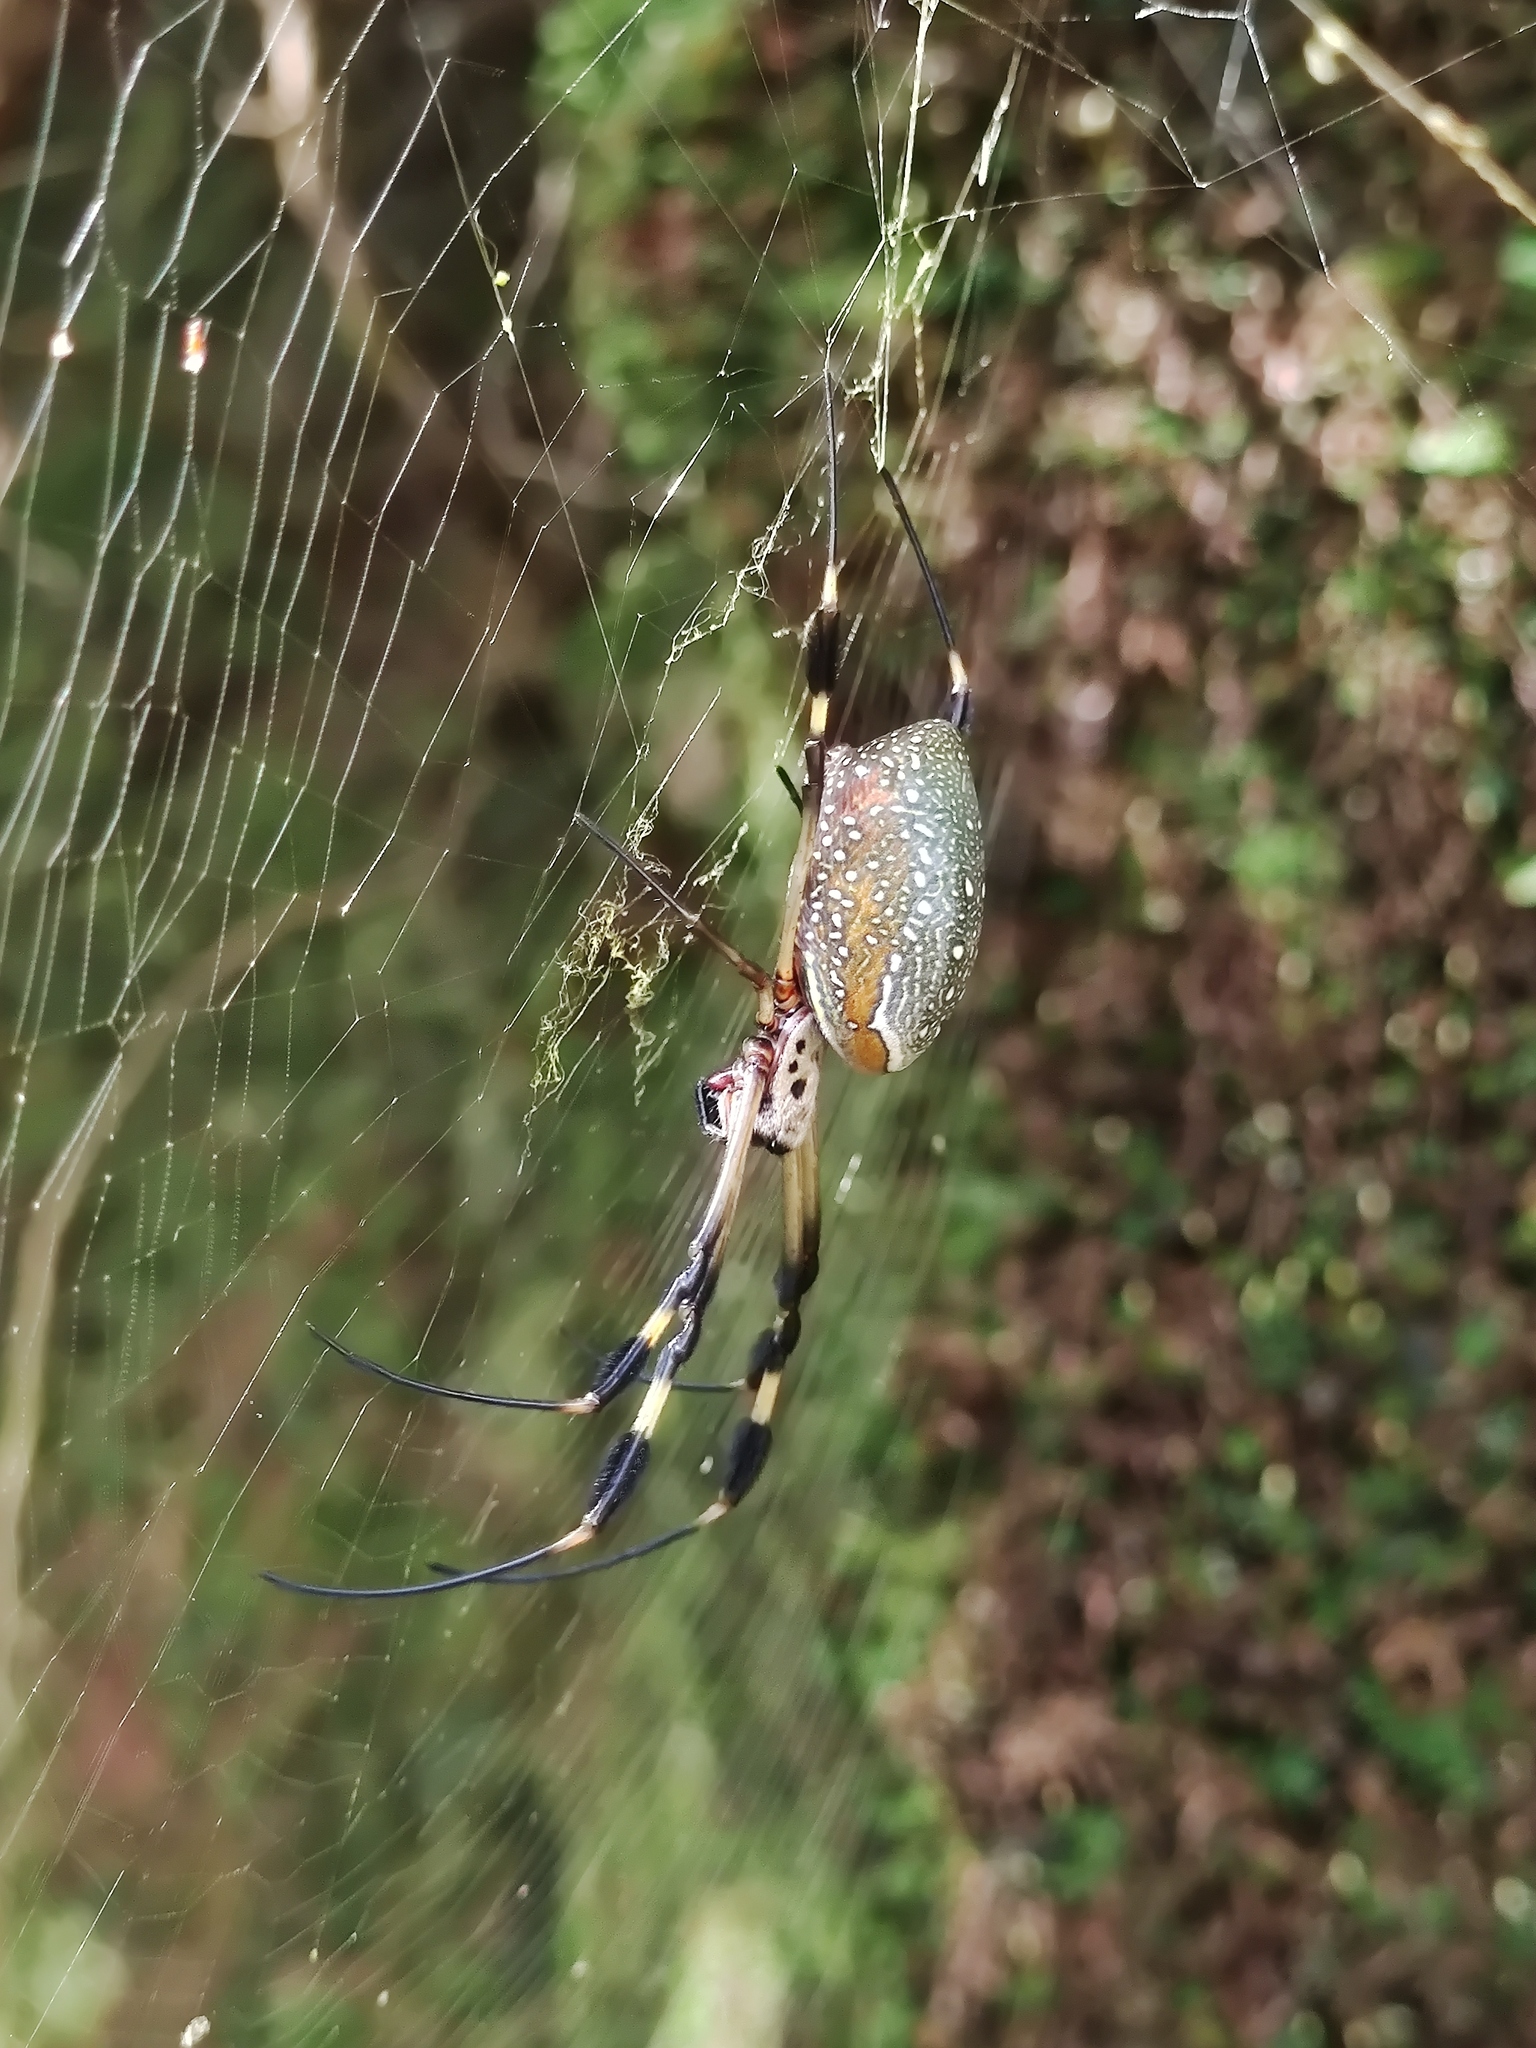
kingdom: Animalia
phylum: Arthropoda
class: Arachnida
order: Araneae
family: Araneidae
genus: Trichonephila
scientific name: Trichonephila clavipes
